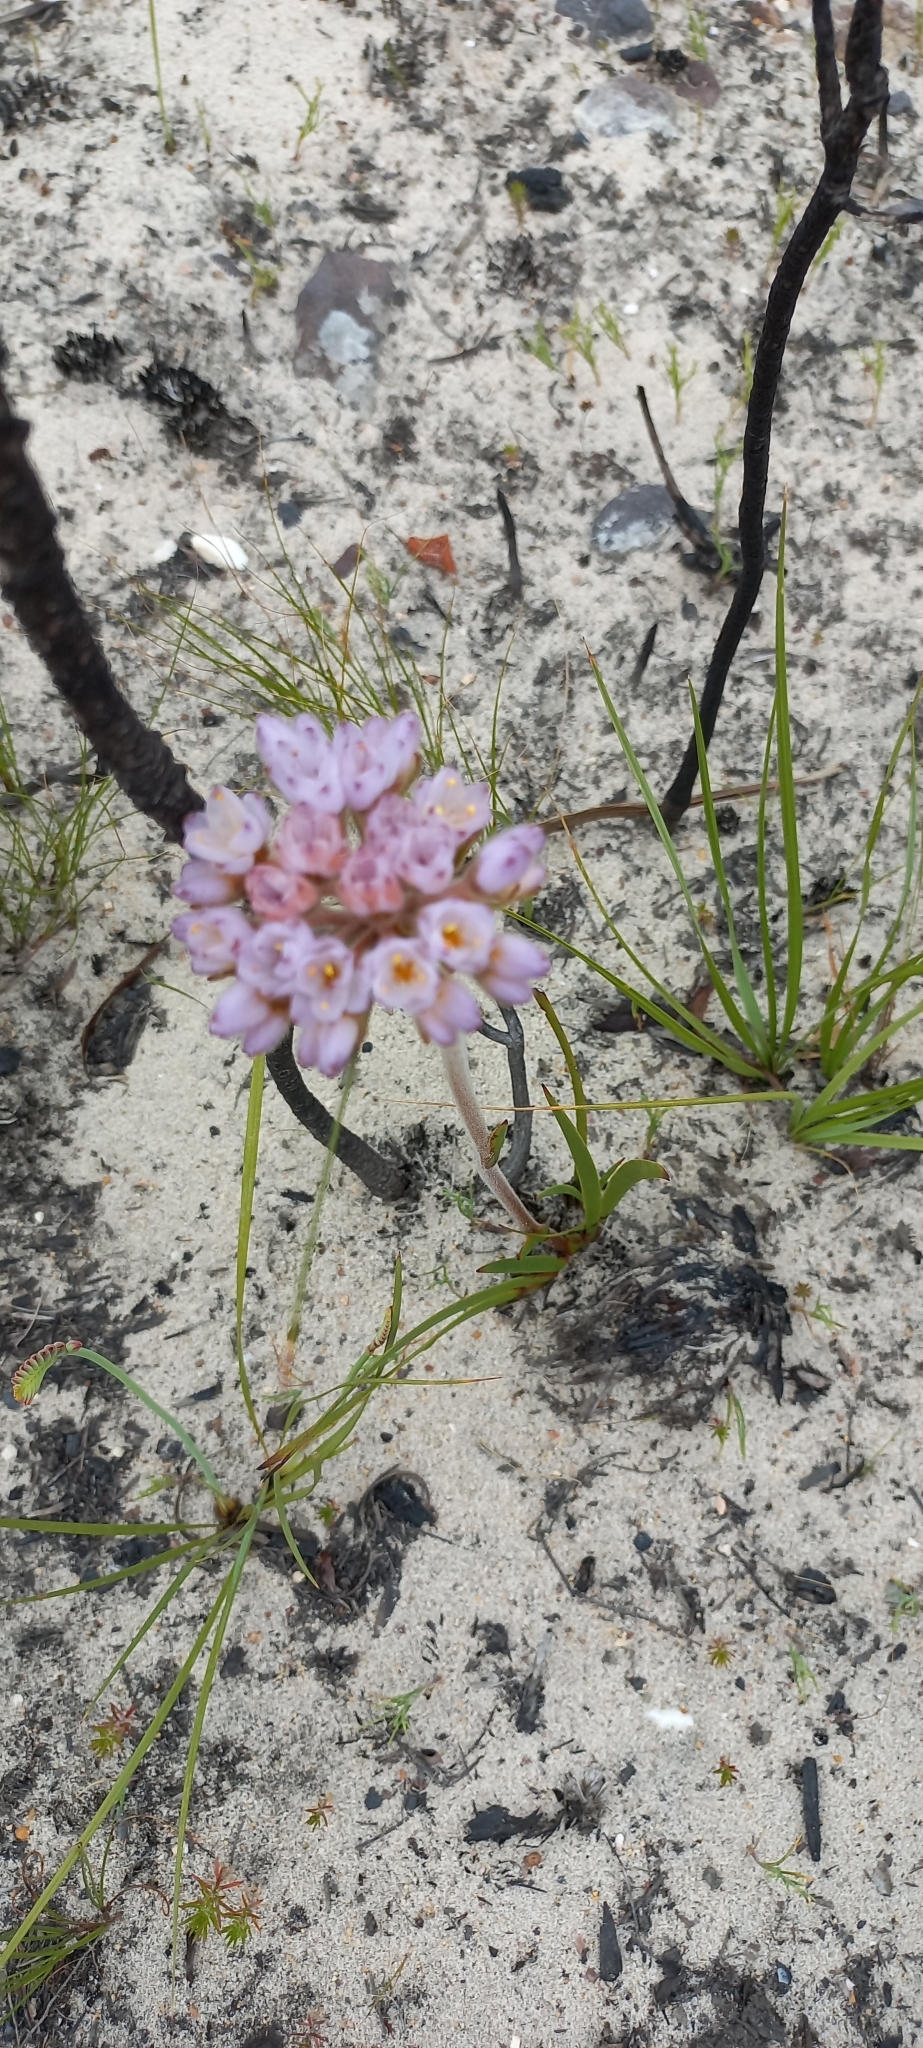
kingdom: Plantae
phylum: Tracheophyta
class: Liliopsida
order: Commelinales
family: Haemodoraceae
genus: Dilatris
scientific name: Dilatris pillansii
